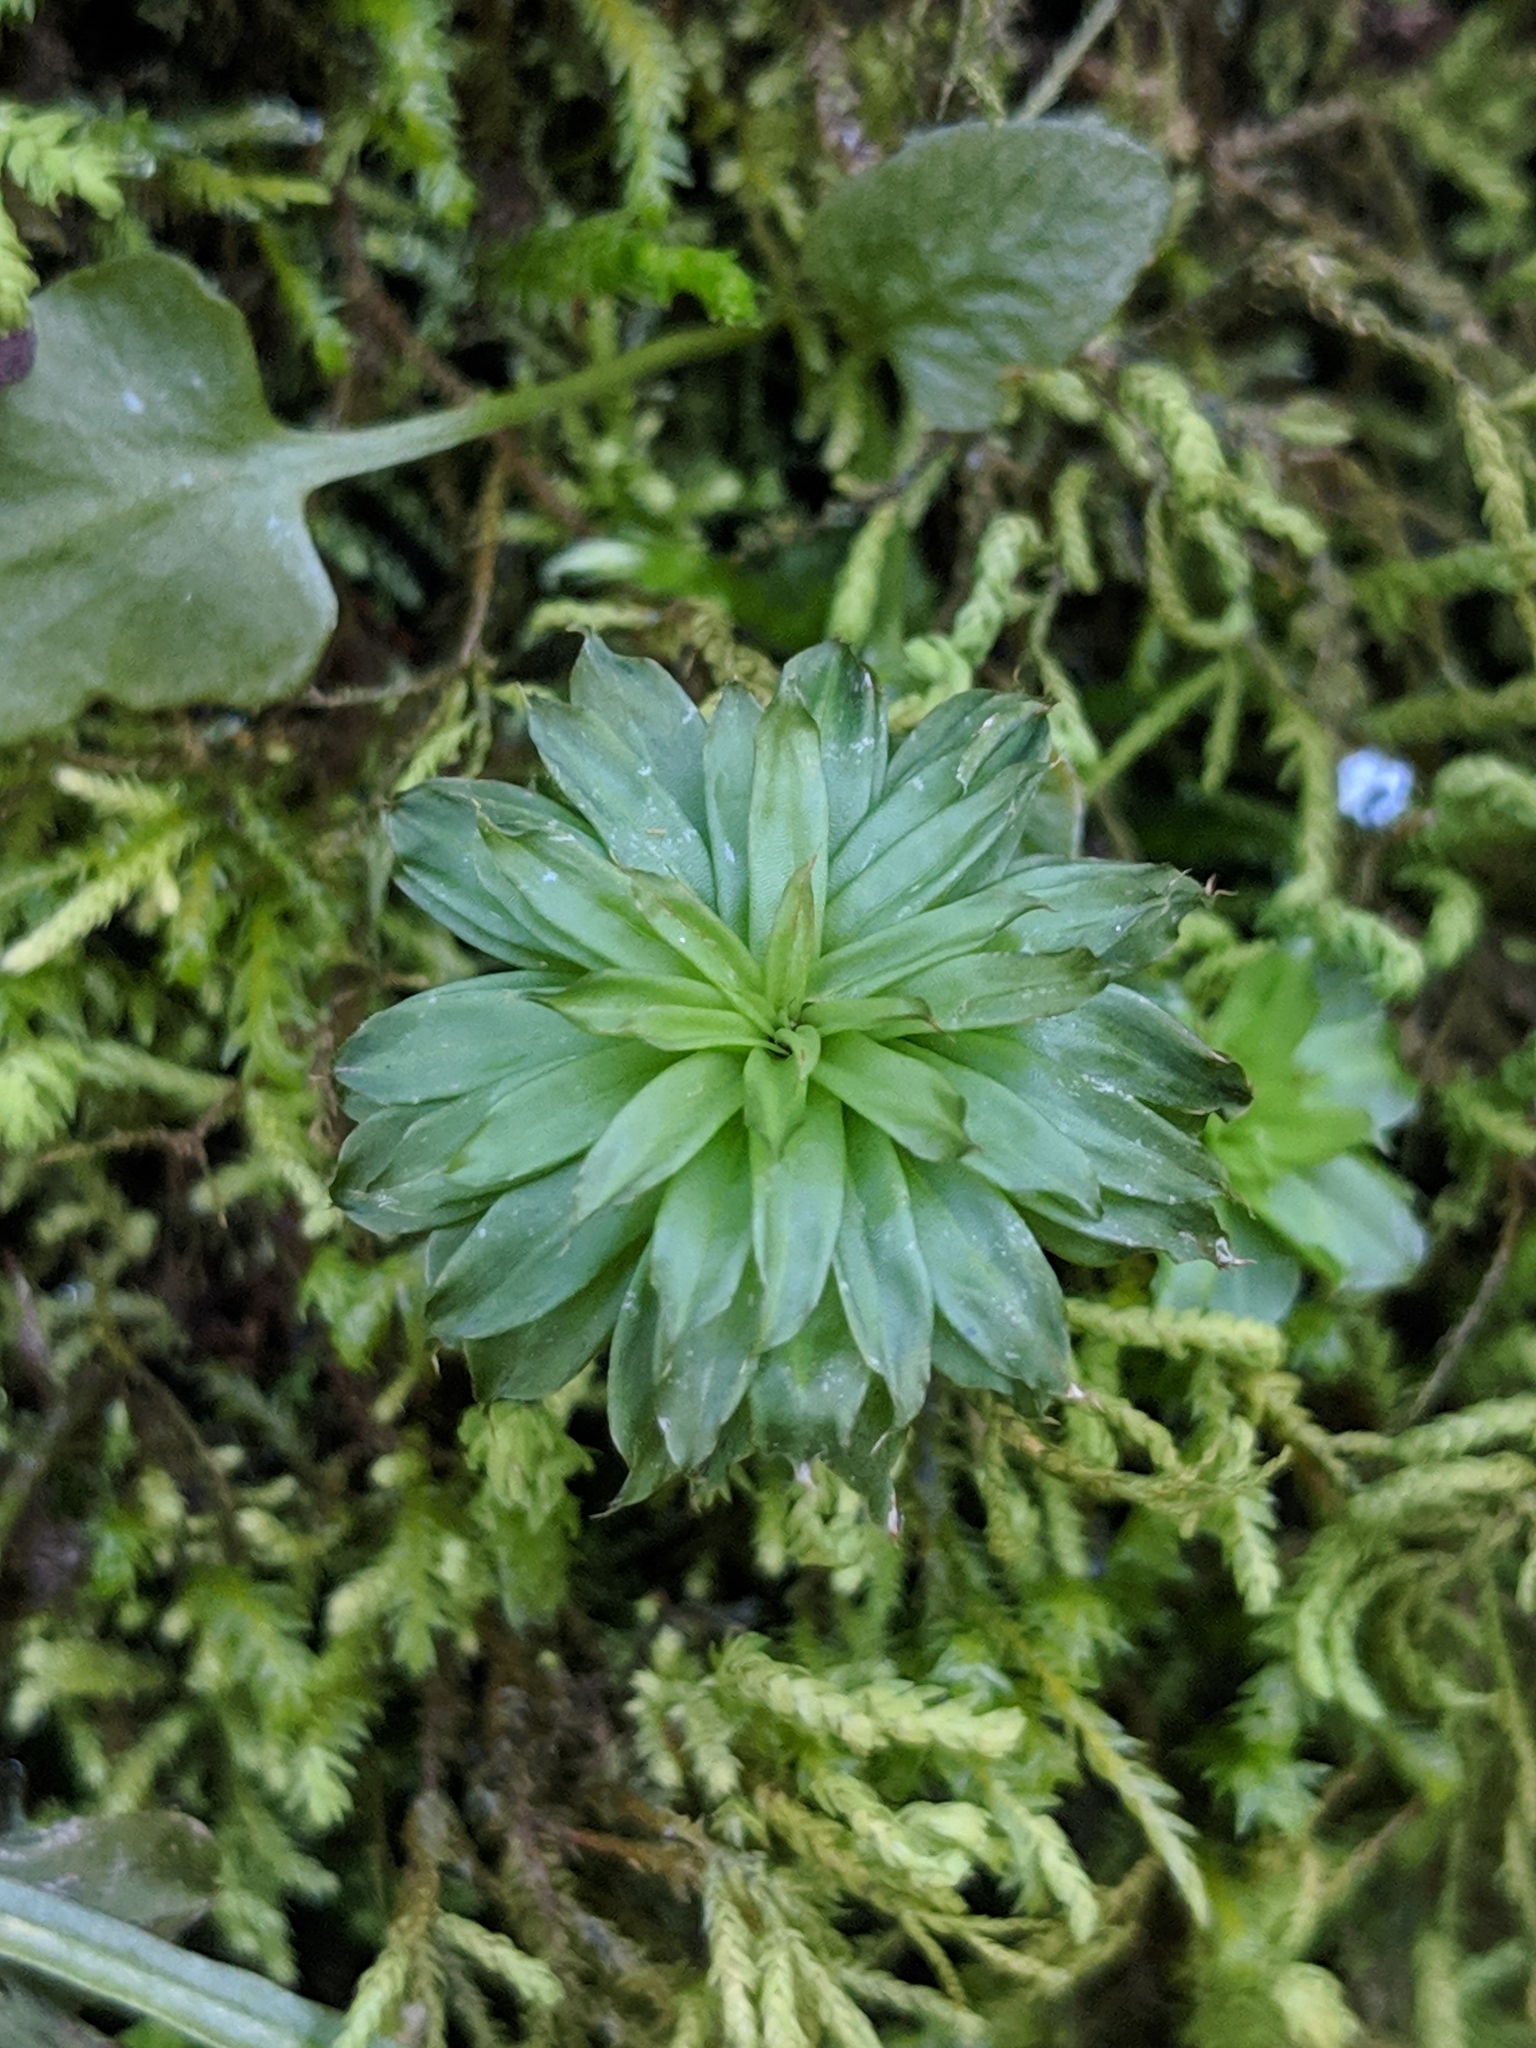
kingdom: Plantae
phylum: Bryophyta
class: Bryopsida
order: Bryales
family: Bryaceae
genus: Rhodobryum
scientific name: Rhodobryum ontariense
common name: Ontario rhodobryum moss
